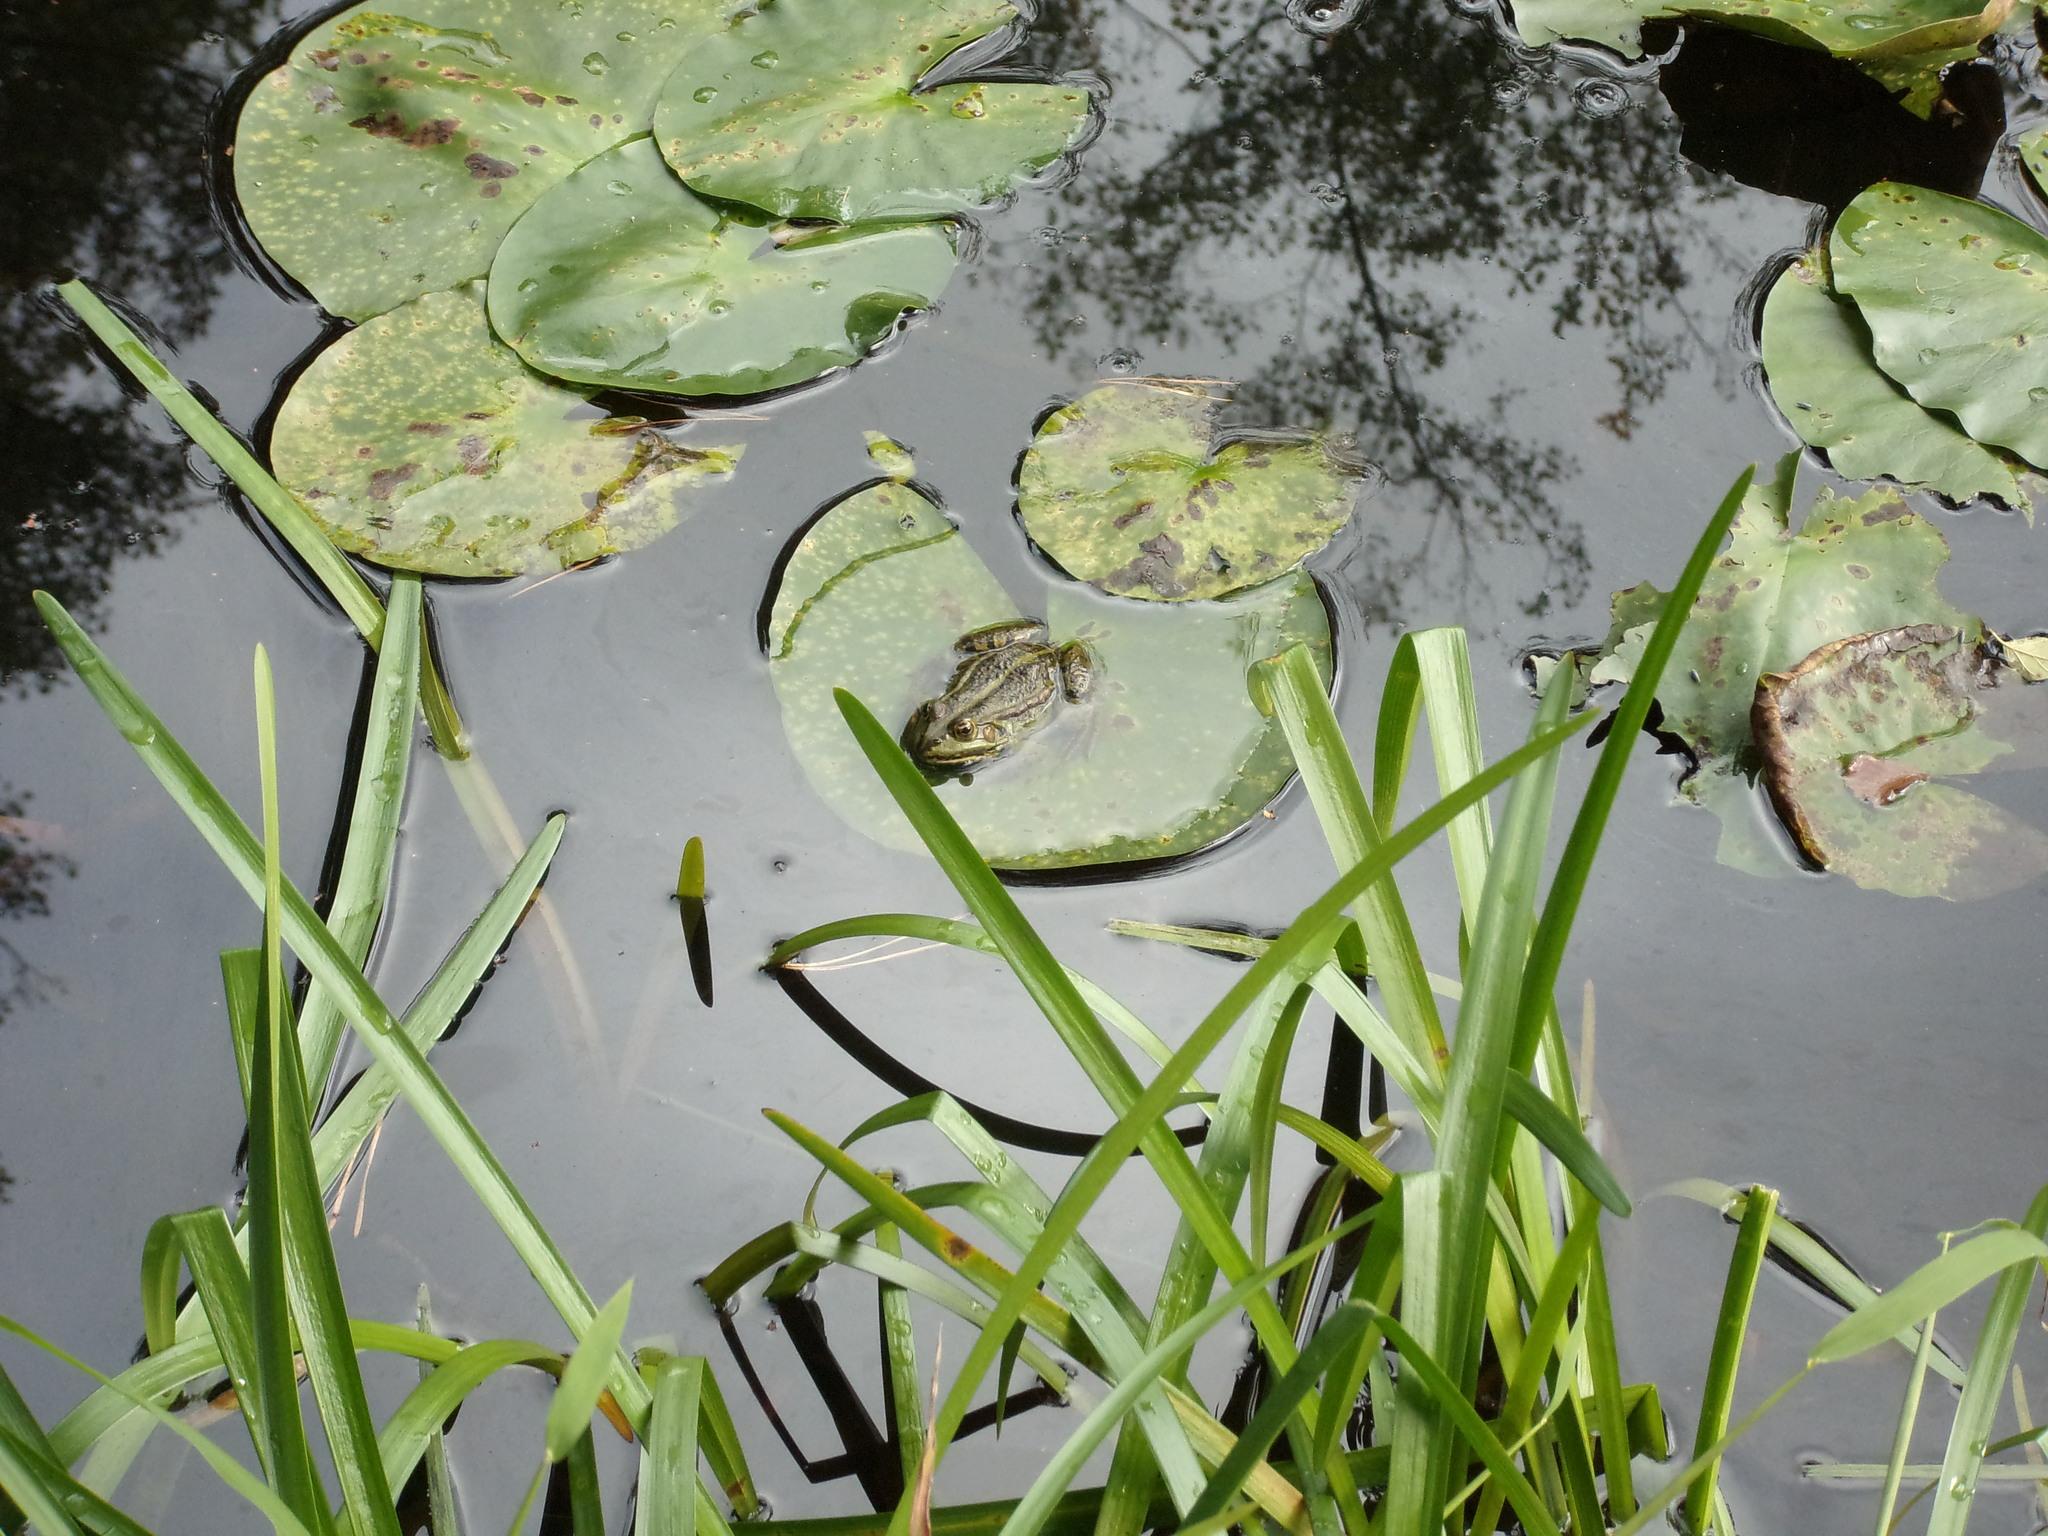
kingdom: Animalia
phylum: Chordata
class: Amphibia
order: Anura
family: Ranidae
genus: Pelophylax
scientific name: Pelophylax
